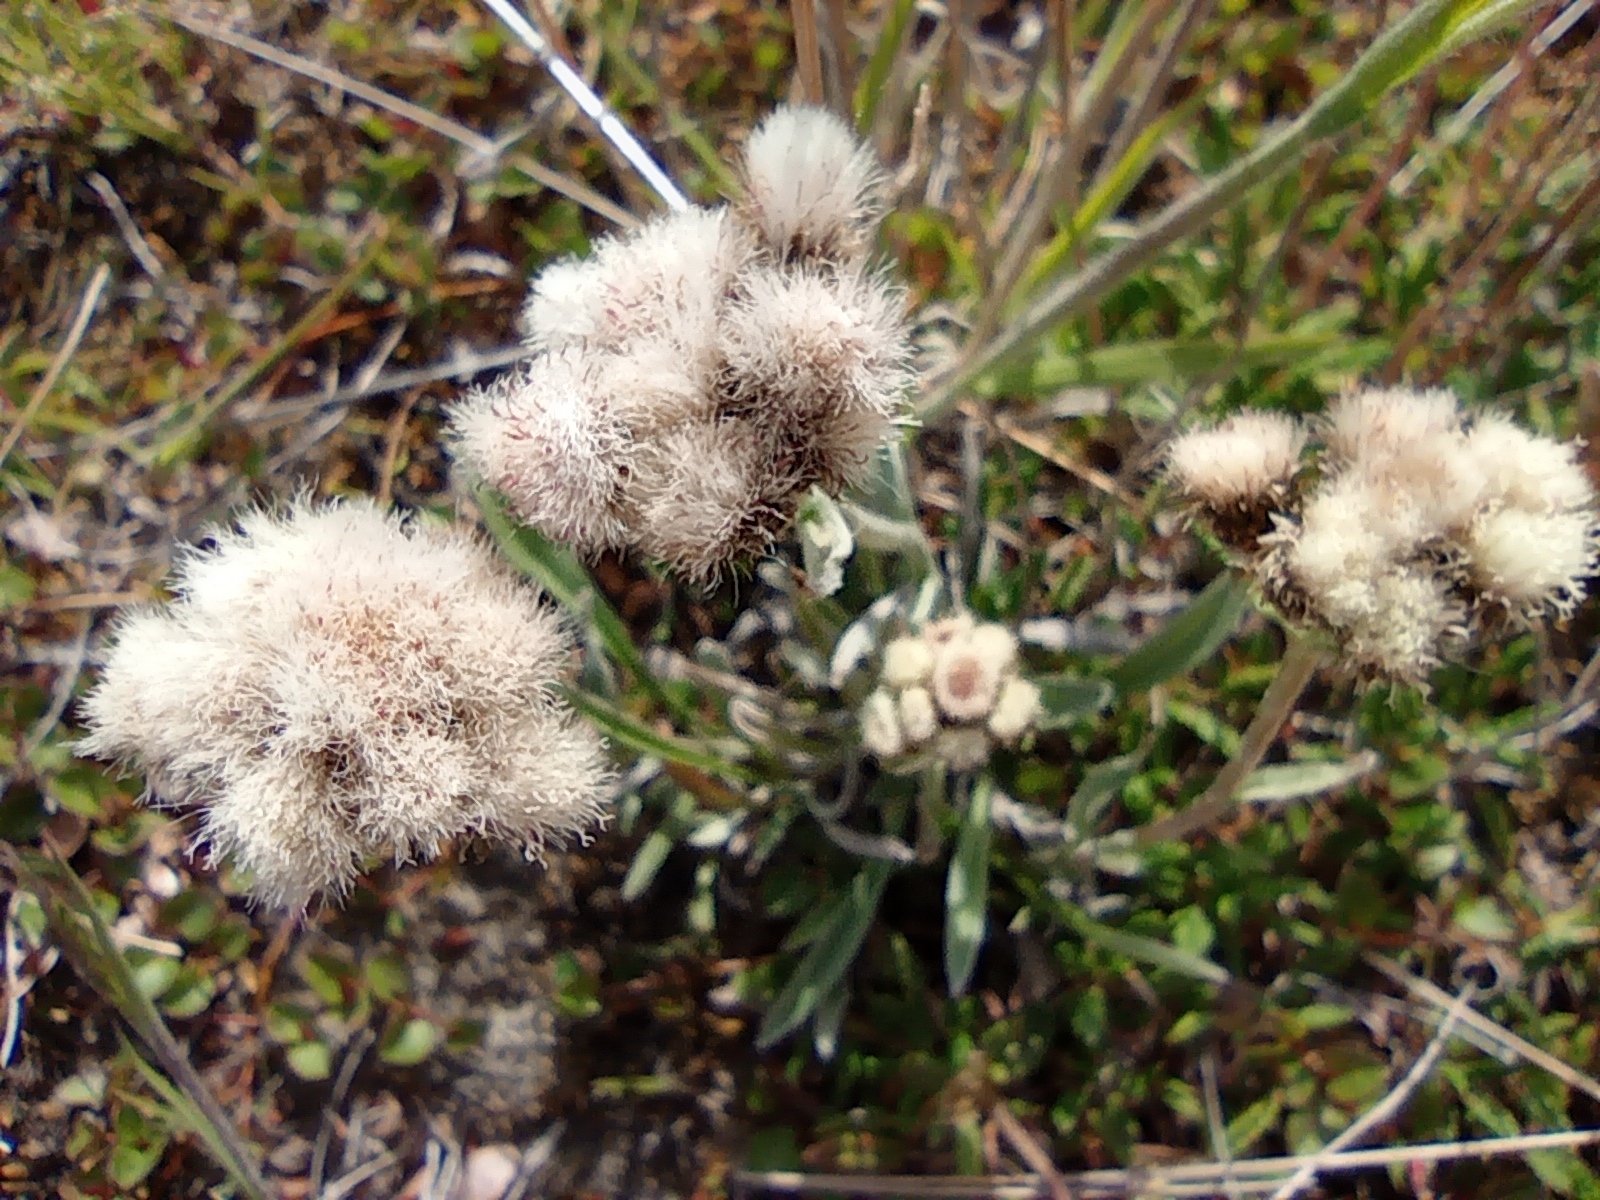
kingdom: Plantae
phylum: Tracheophyta
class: Magnoliopsida
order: Asterales
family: Asteraceae
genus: Antennaria
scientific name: Antennaria lanata
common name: Woolly pussytoes
